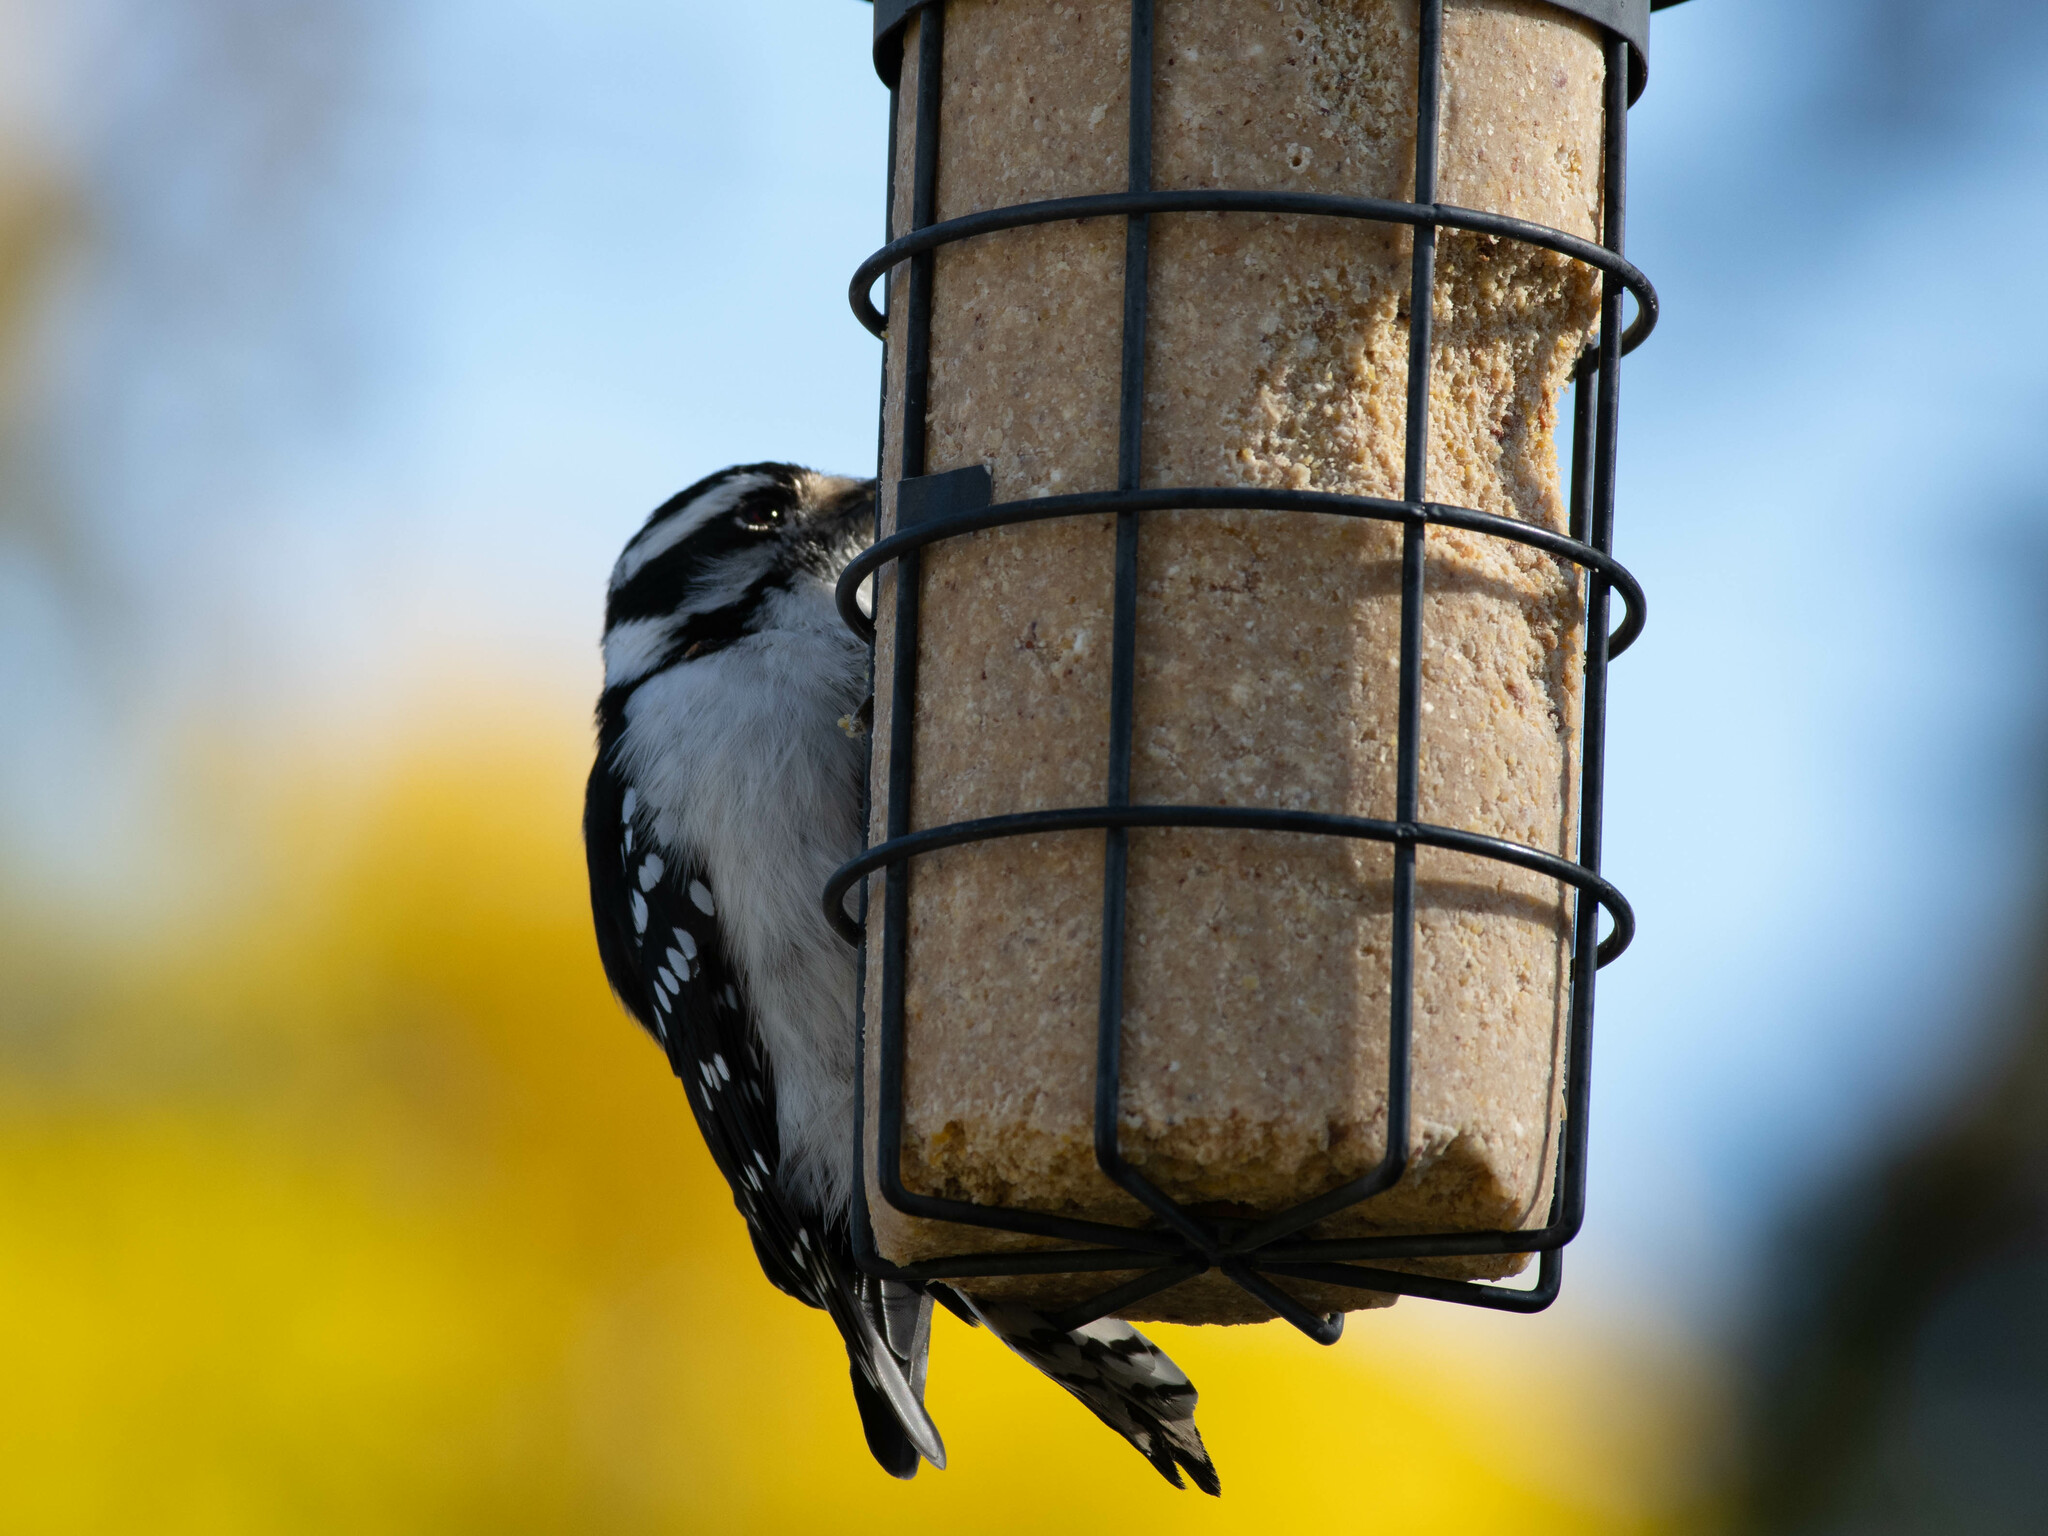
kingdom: Animalia
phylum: Chordata
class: Aves
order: Piciformes
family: Picidae
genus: Dryobates
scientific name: Dryobates pubescens
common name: Downy woodpecker
